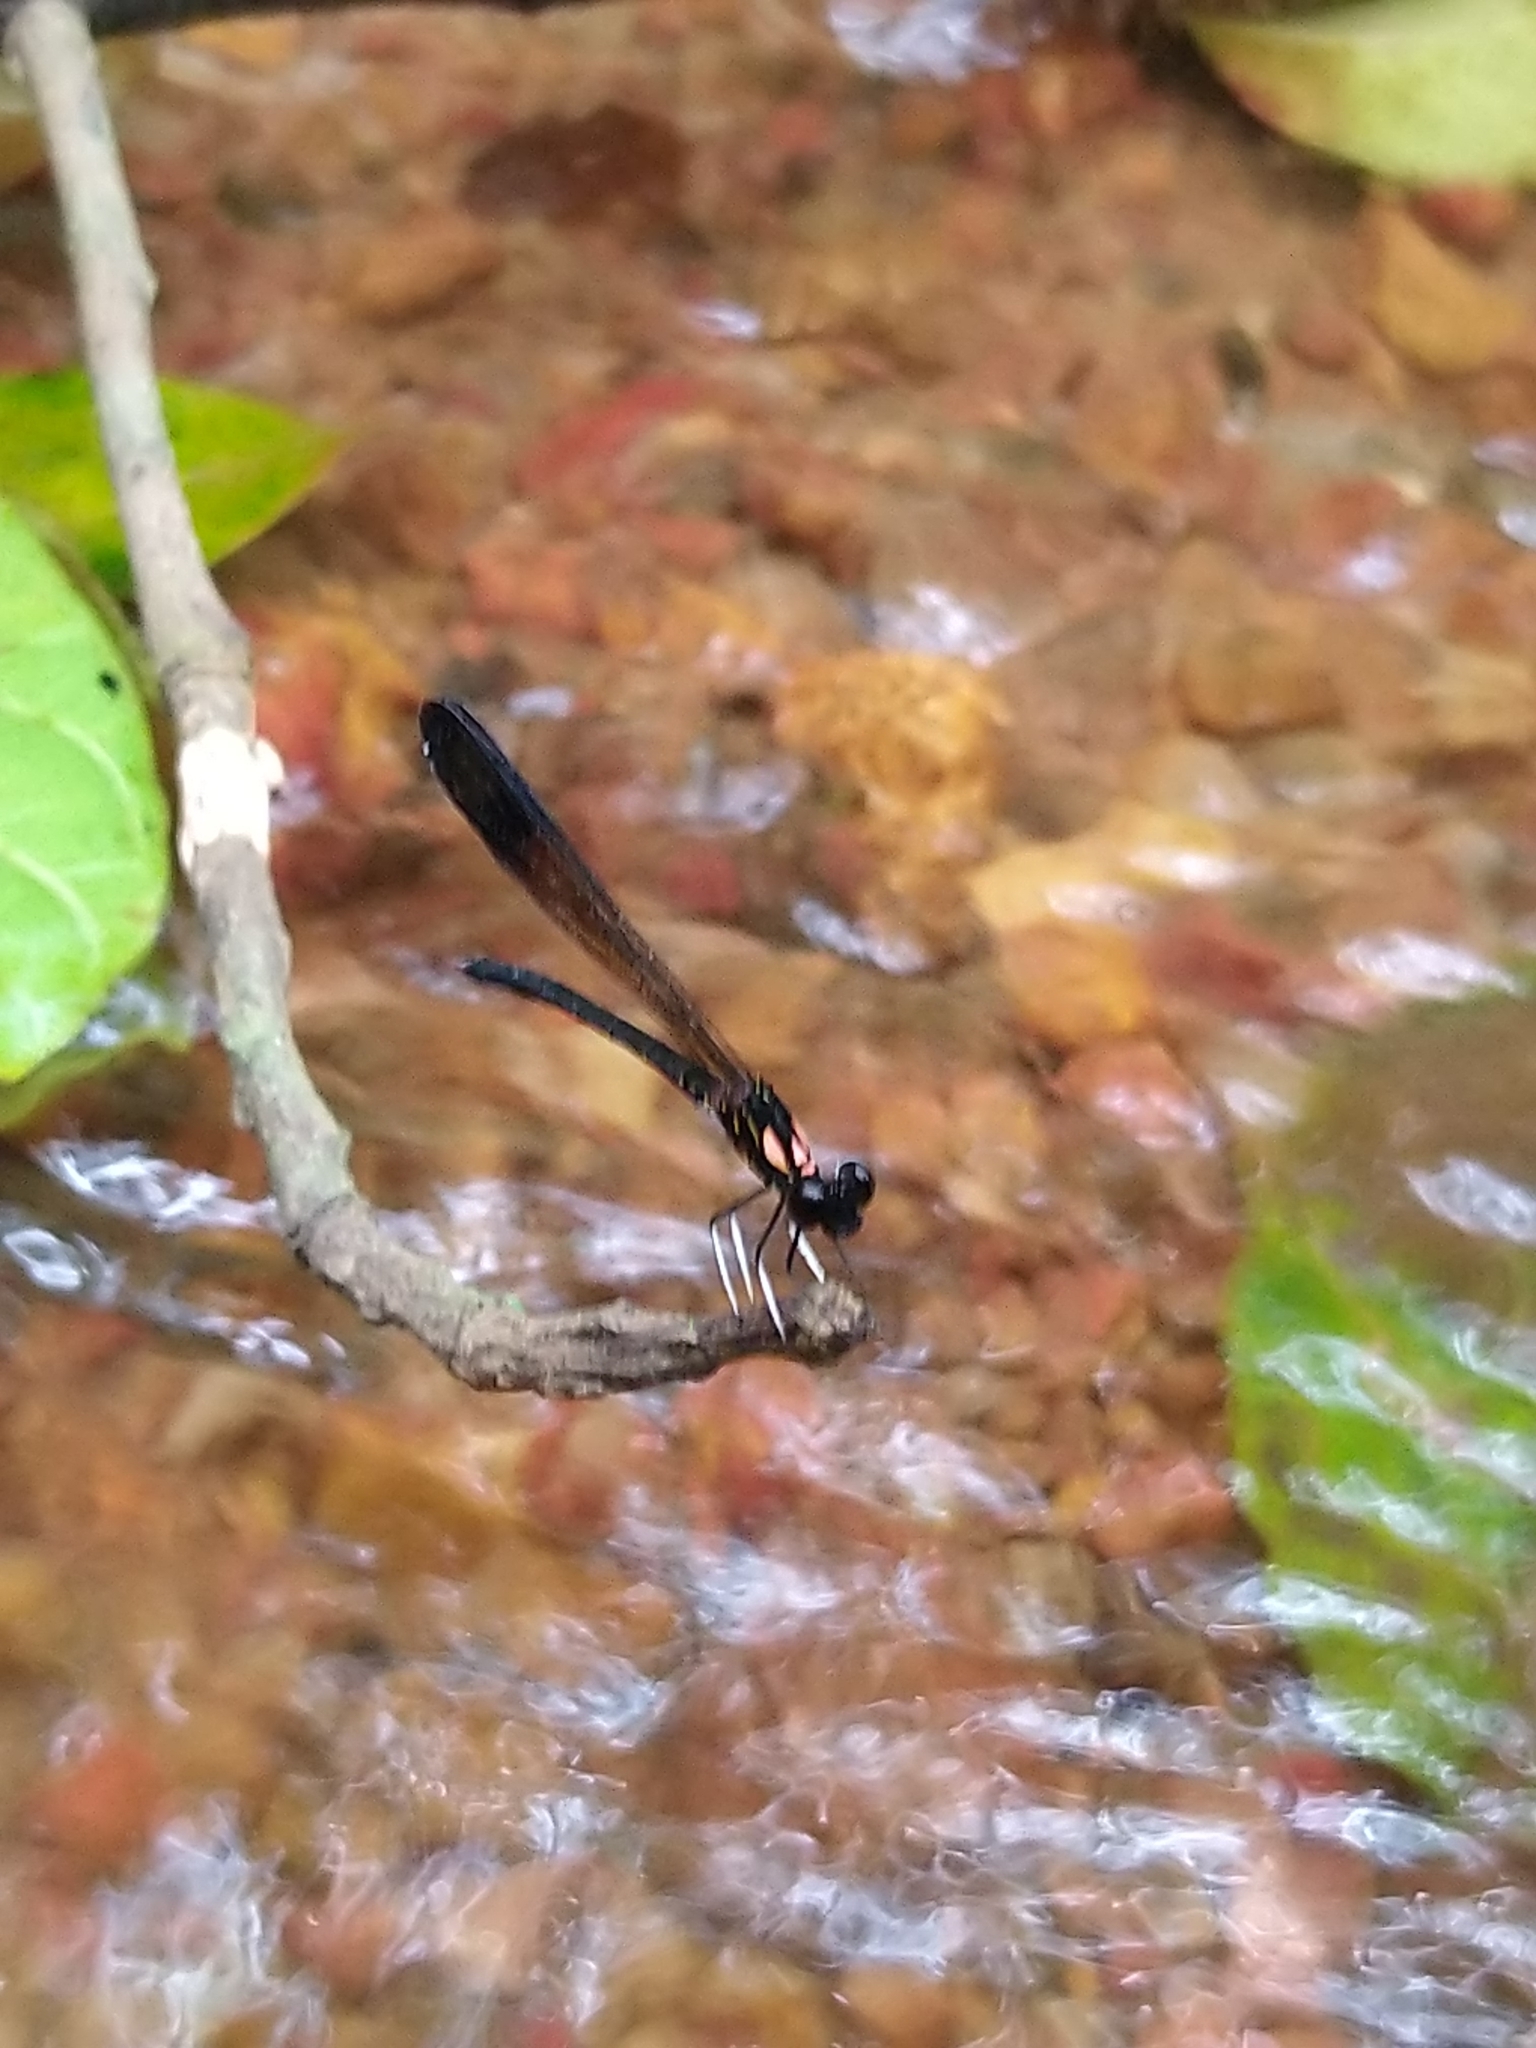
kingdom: Animalia
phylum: Arthropoda
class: Insecta
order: Odonata
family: Chlorocyphidae
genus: Heliocypha
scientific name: Heliocypha bisignata
